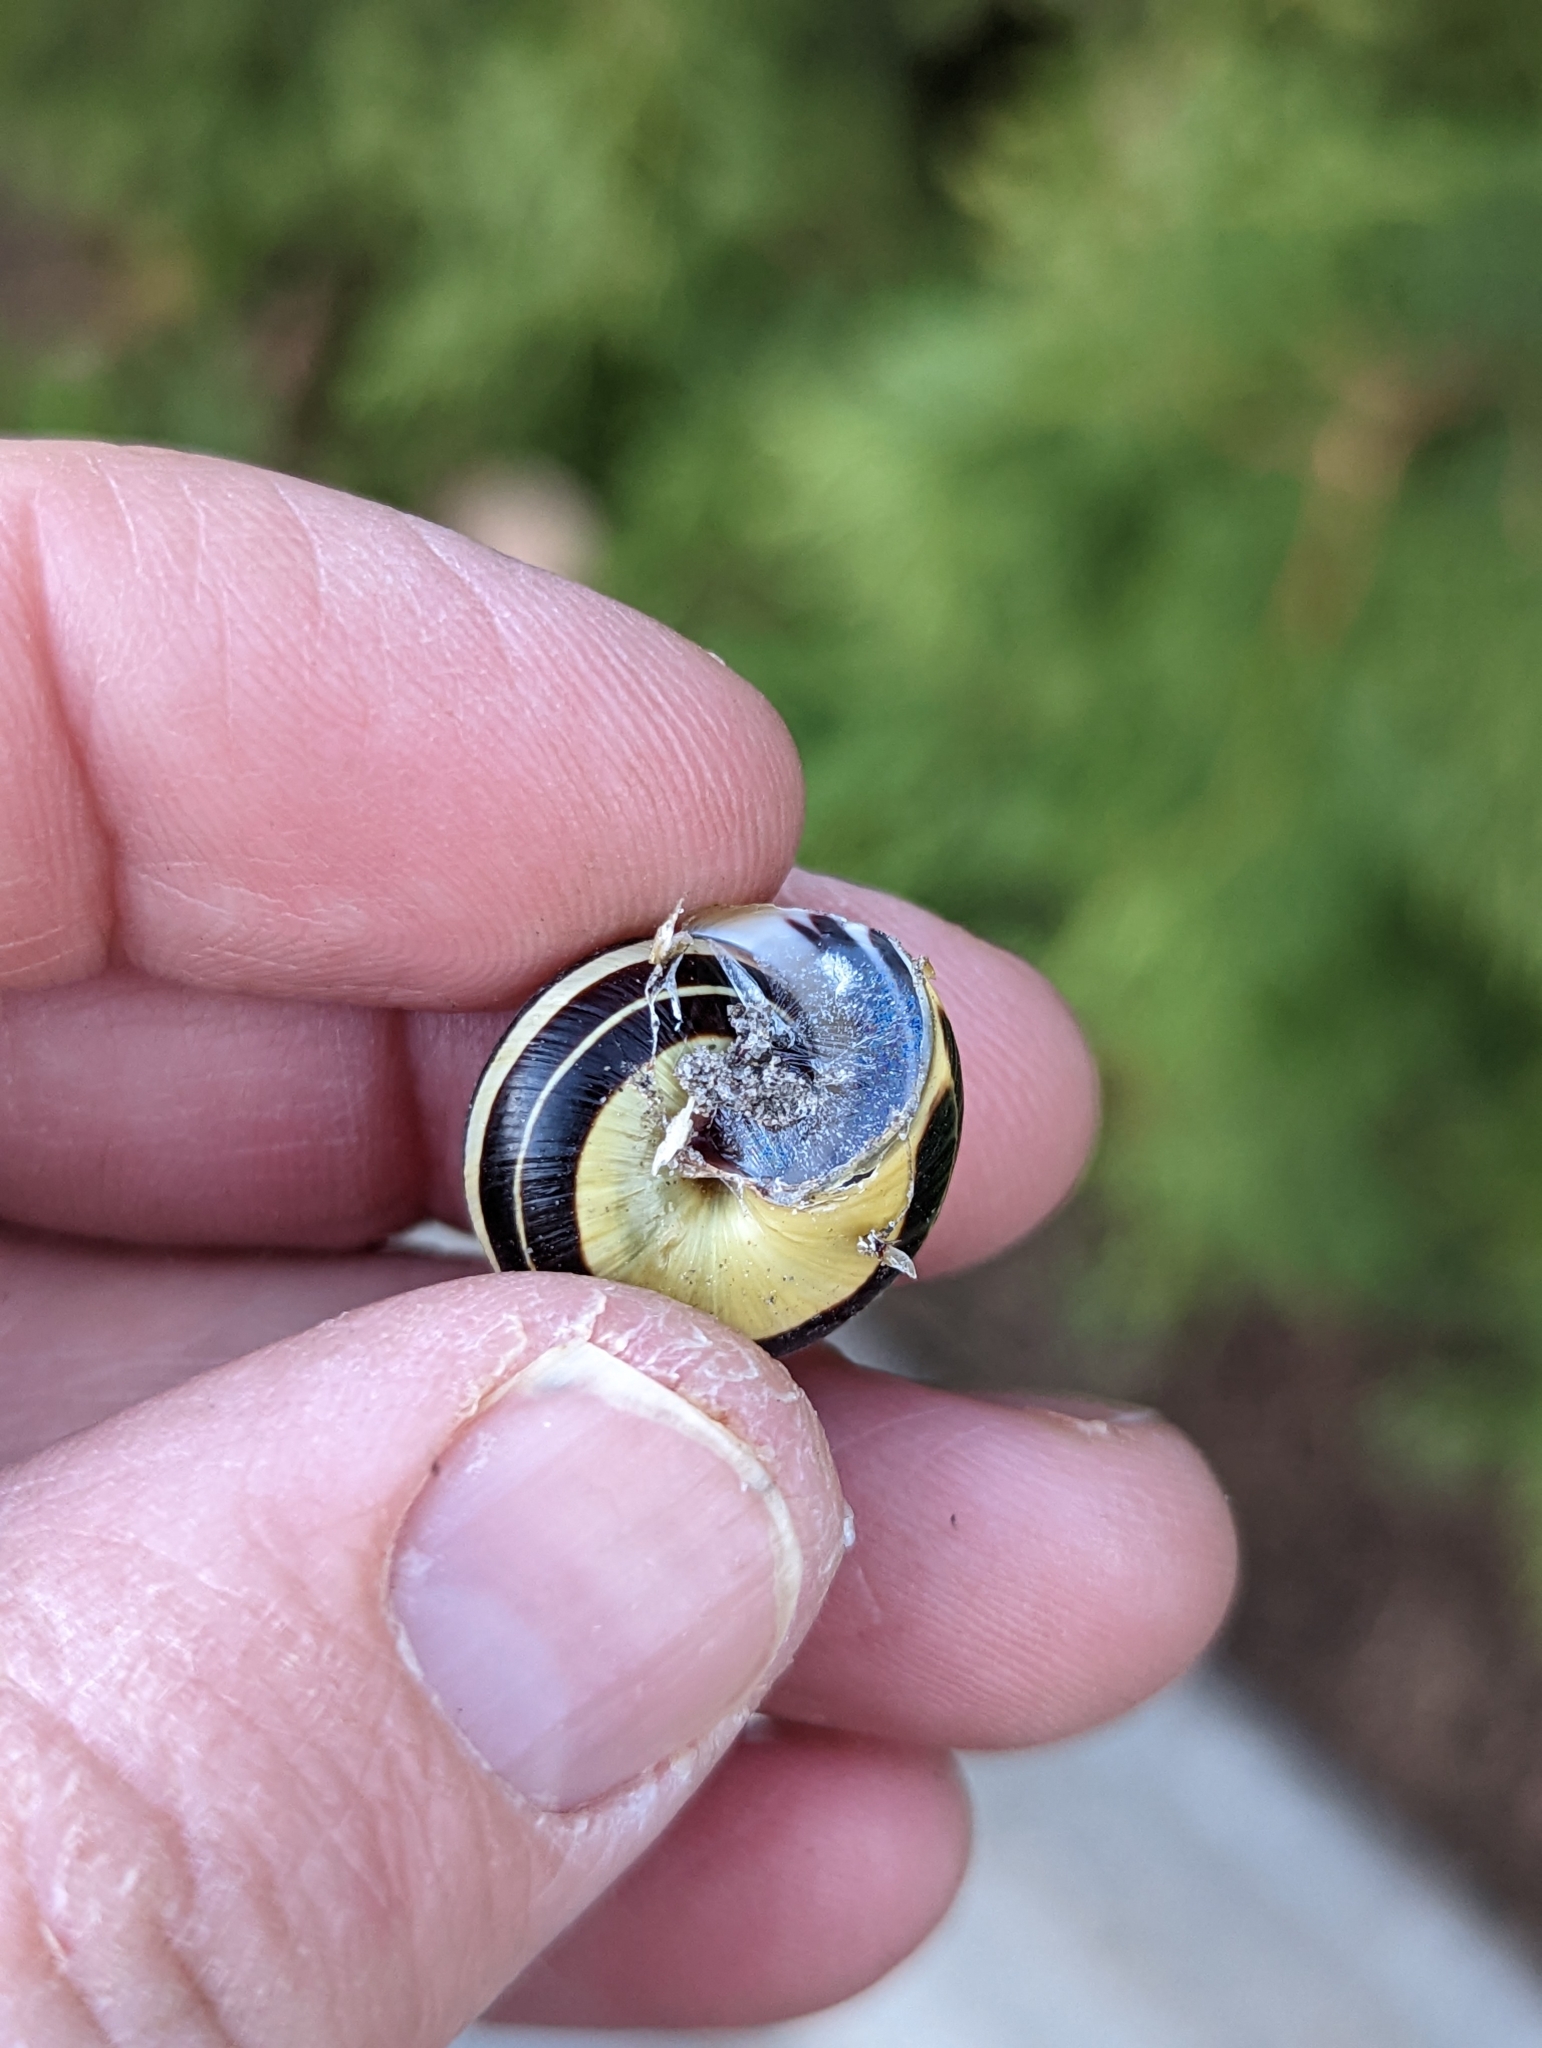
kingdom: Animalia
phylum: Mollusca
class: Gastropoda
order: Stylommatophora
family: Helicidae
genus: Cepaea
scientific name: Cepaea nemoralis
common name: Grovesnail
